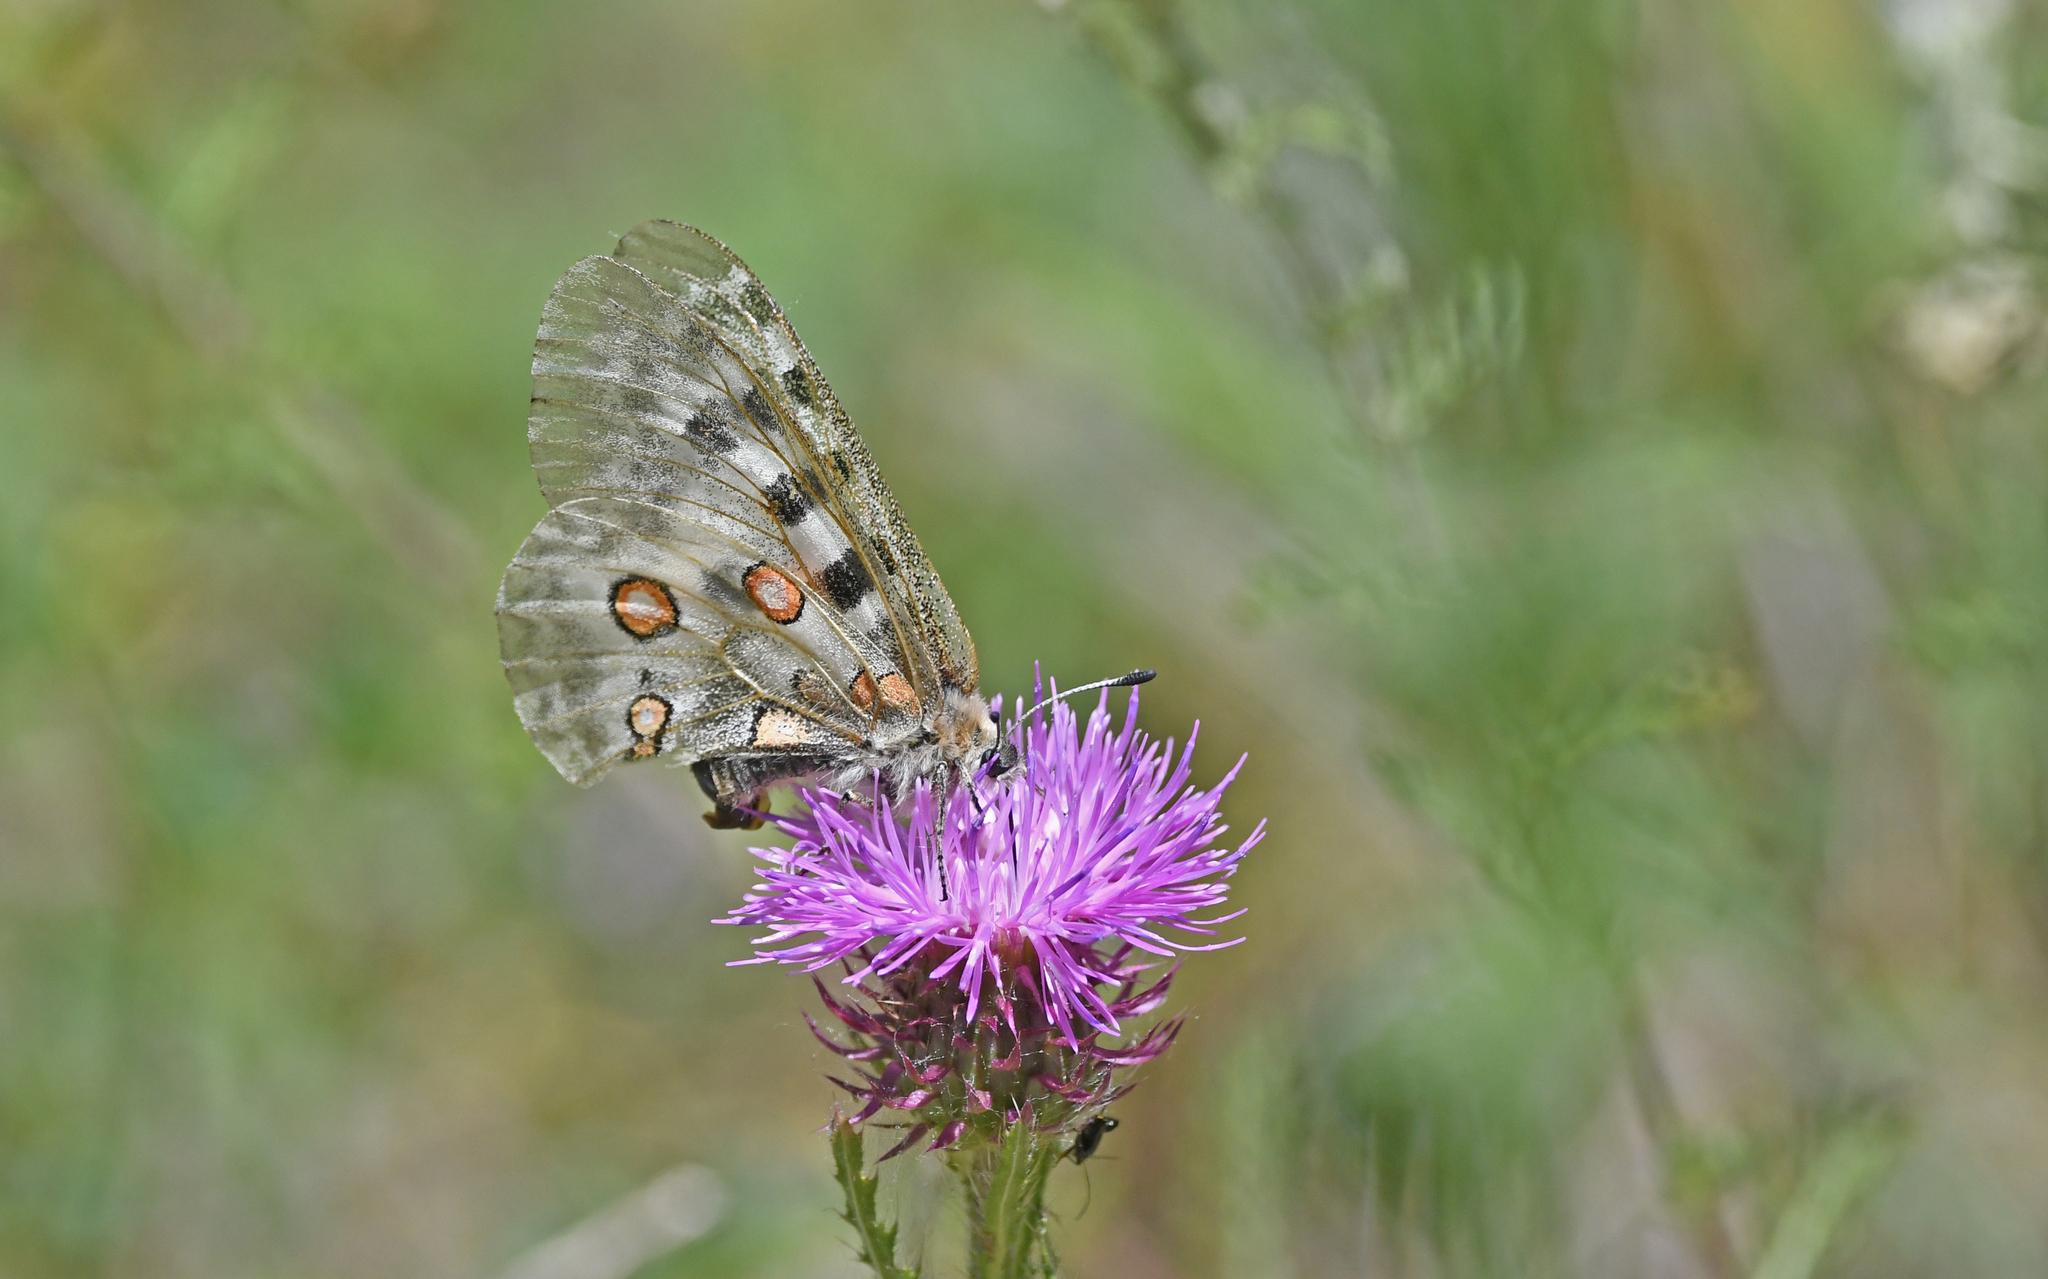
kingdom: Animalia
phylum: Arthropoda
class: Insecta
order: Lepidoptera
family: Papilionidae
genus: Parnassius
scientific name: Parnassius apollo
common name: Apollo
